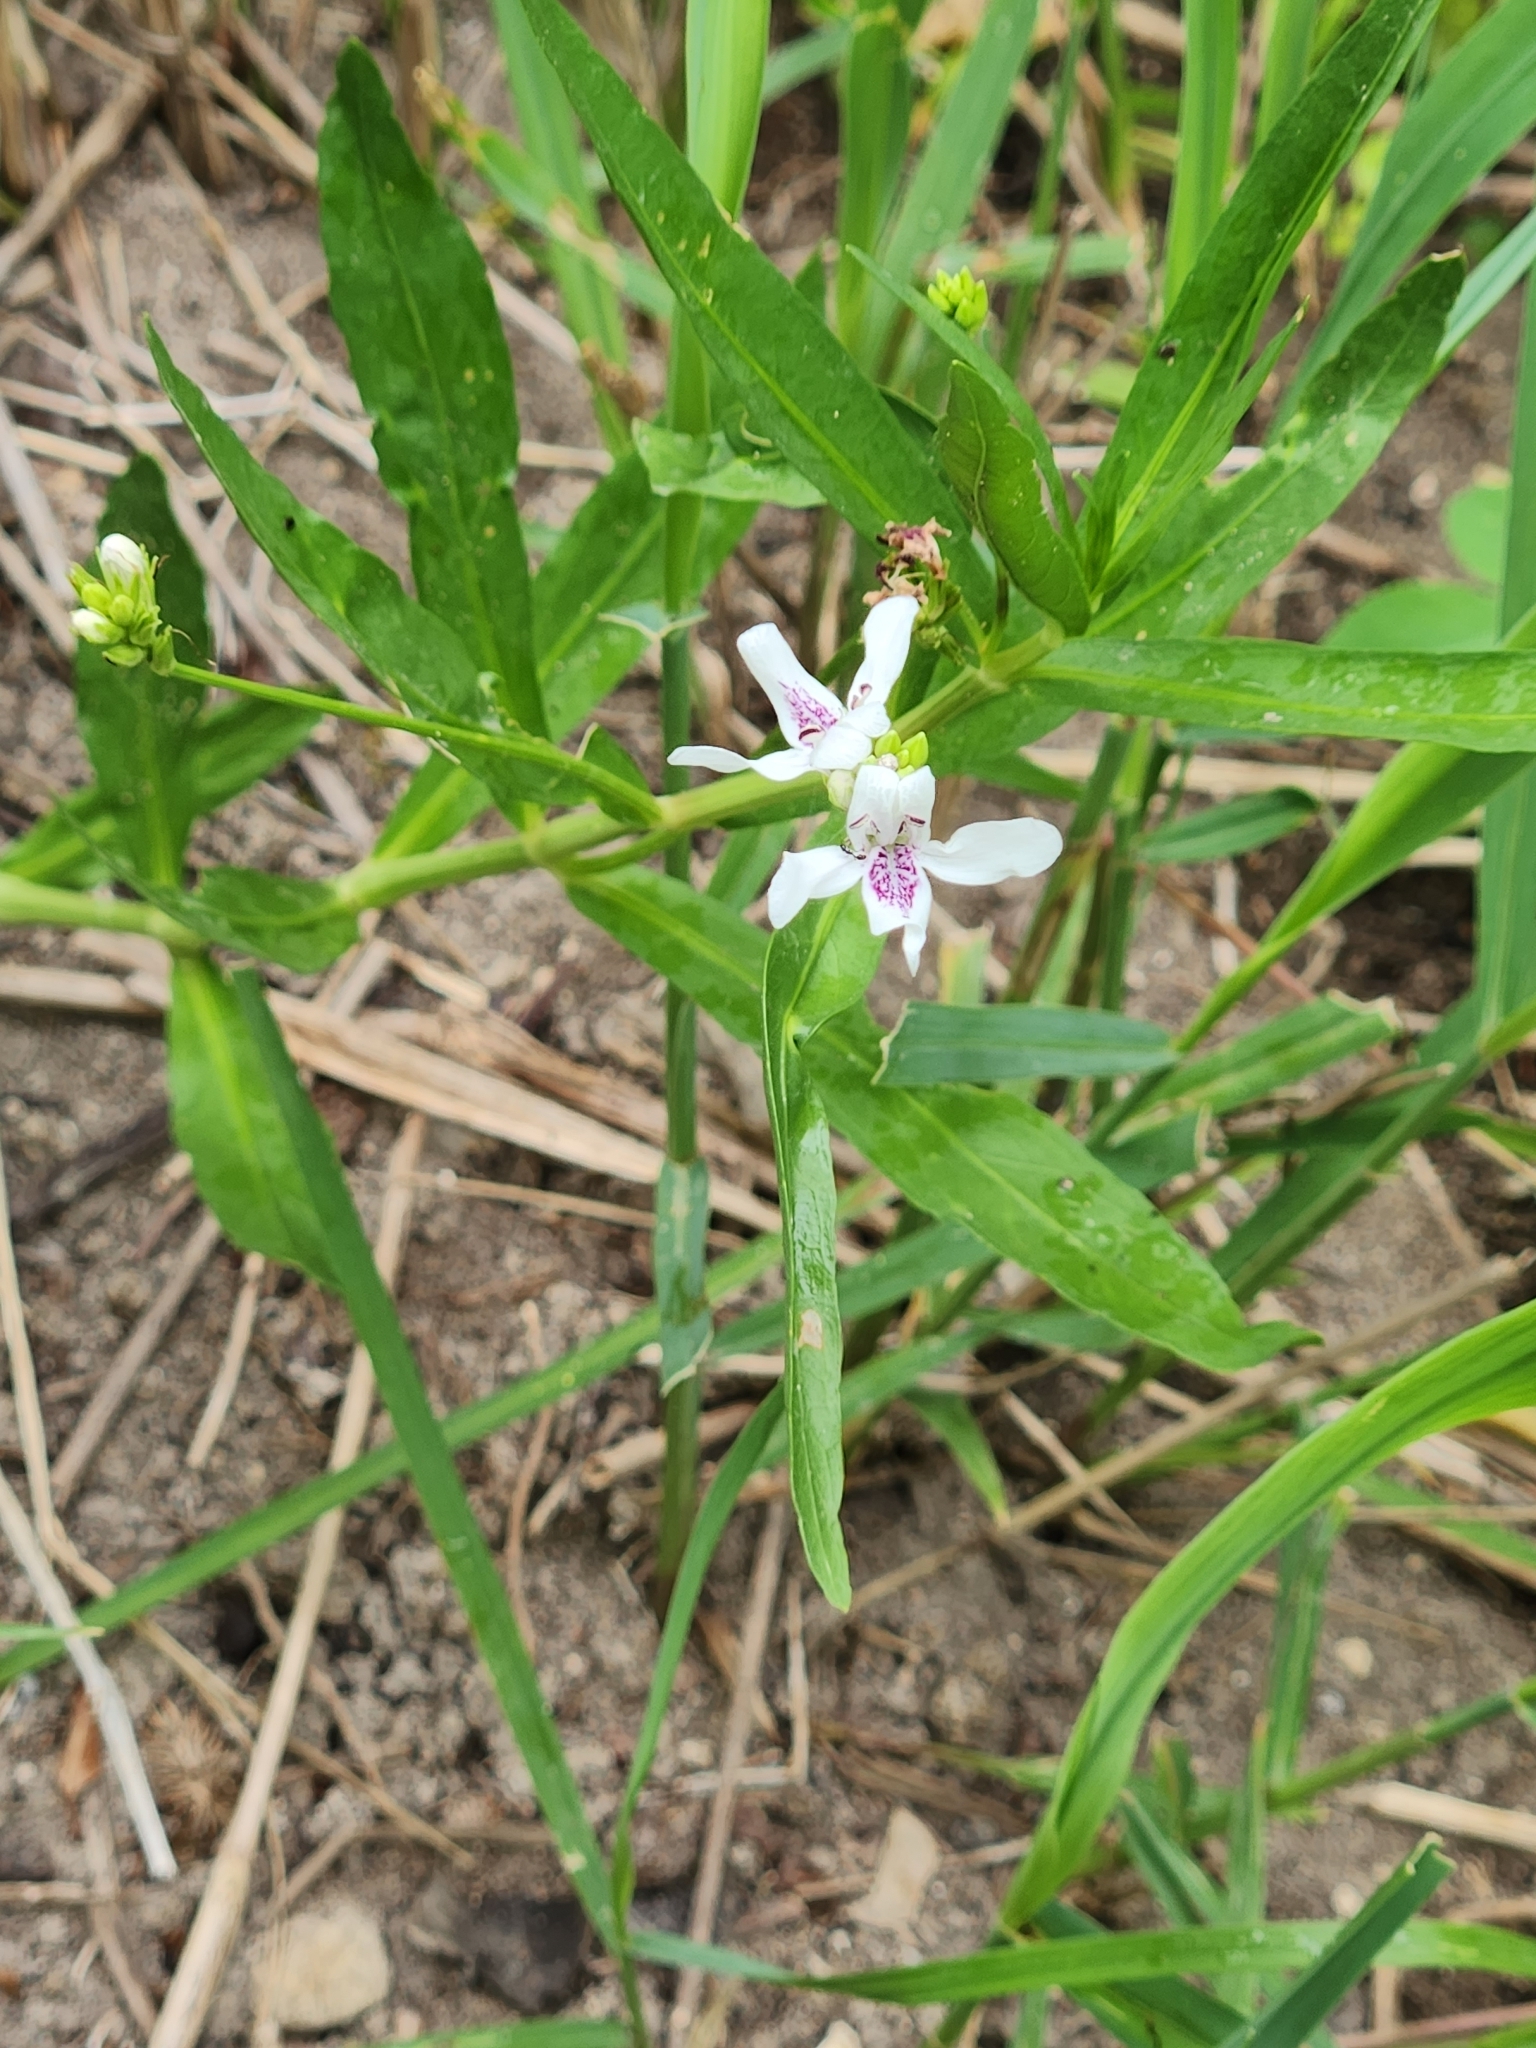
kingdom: Plantae
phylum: Tracheophyta
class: Magnoliopsida
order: Lamiales
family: Acanthaceae
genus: Dianthera
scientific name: Dianthera americana
